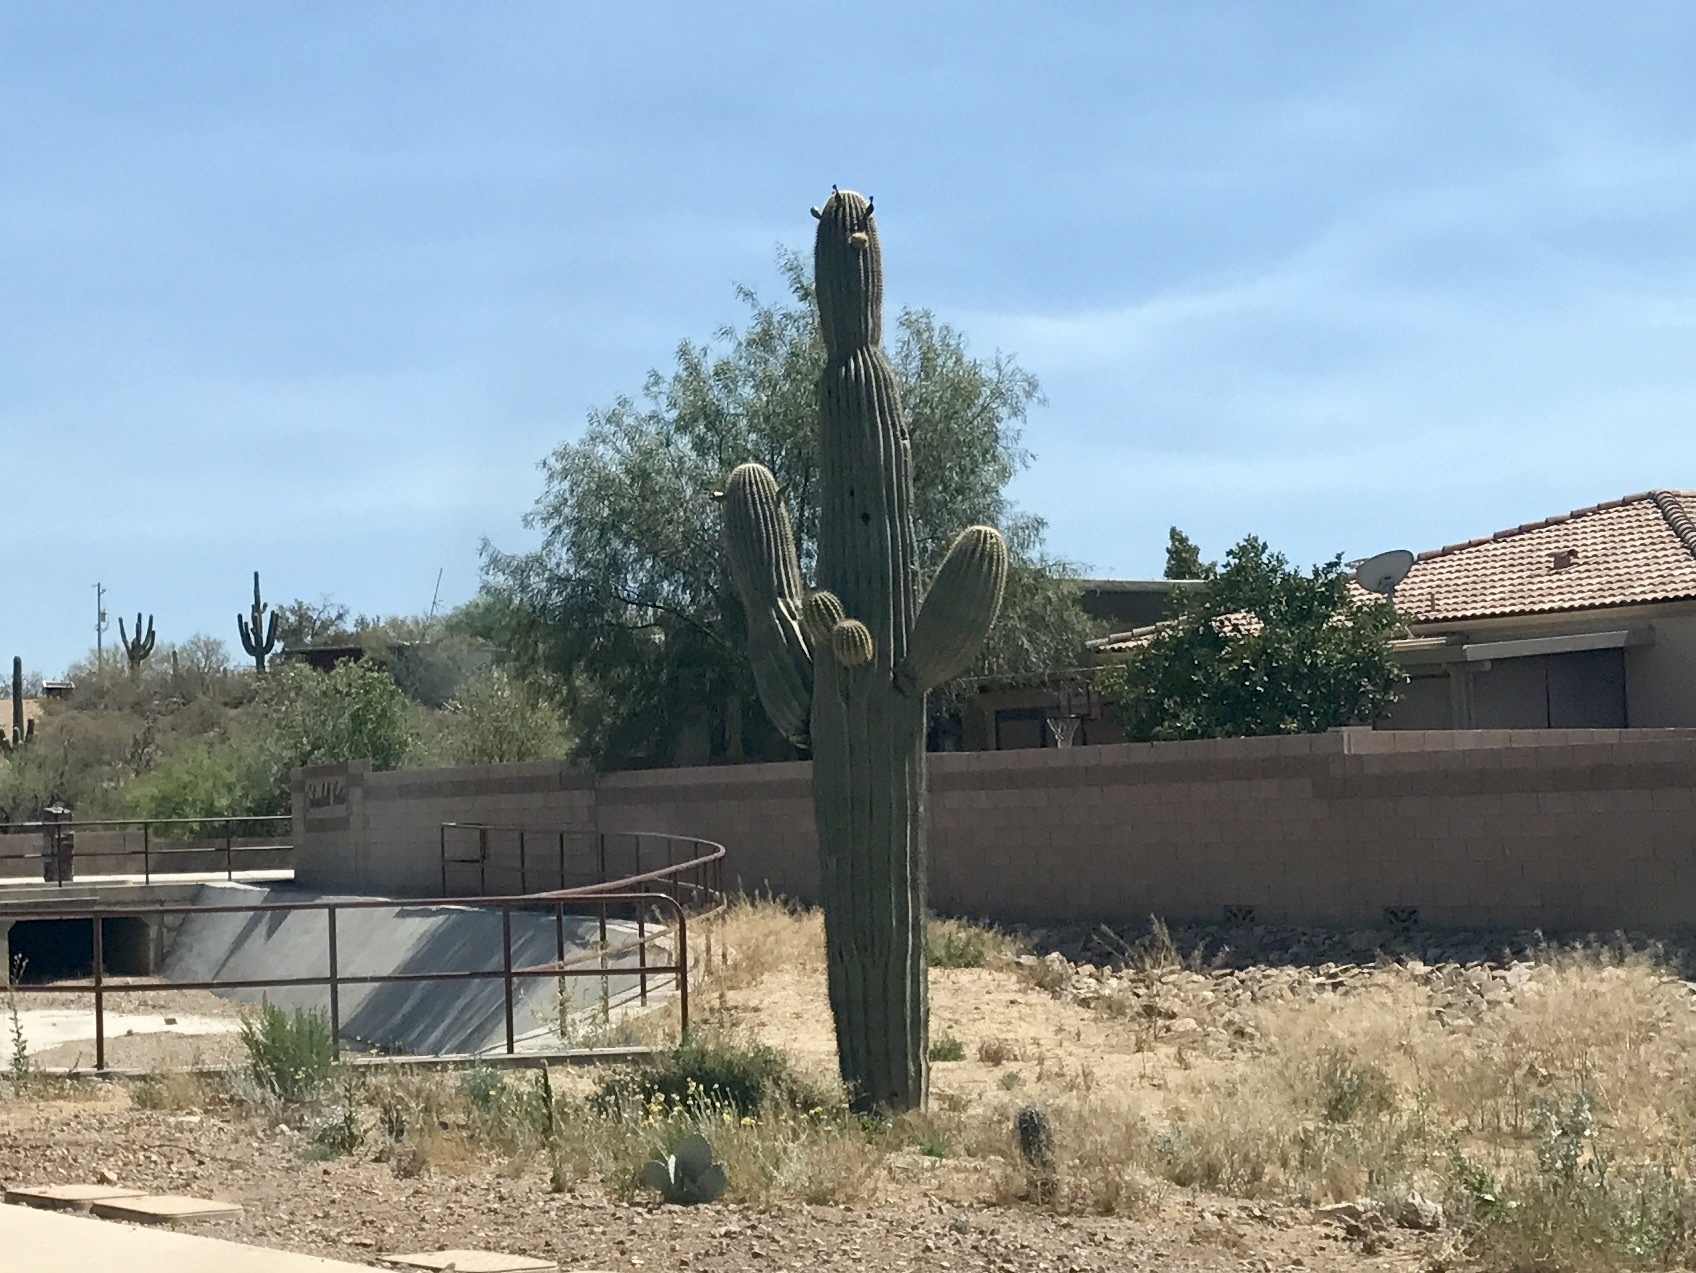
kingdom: Plantae
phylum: Tracheophyta
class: Magnoliopsida
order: Caryophyllales
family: Cactaceae
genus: Carnegiea
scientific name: Carnegiea gigantea
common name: Saguaro
